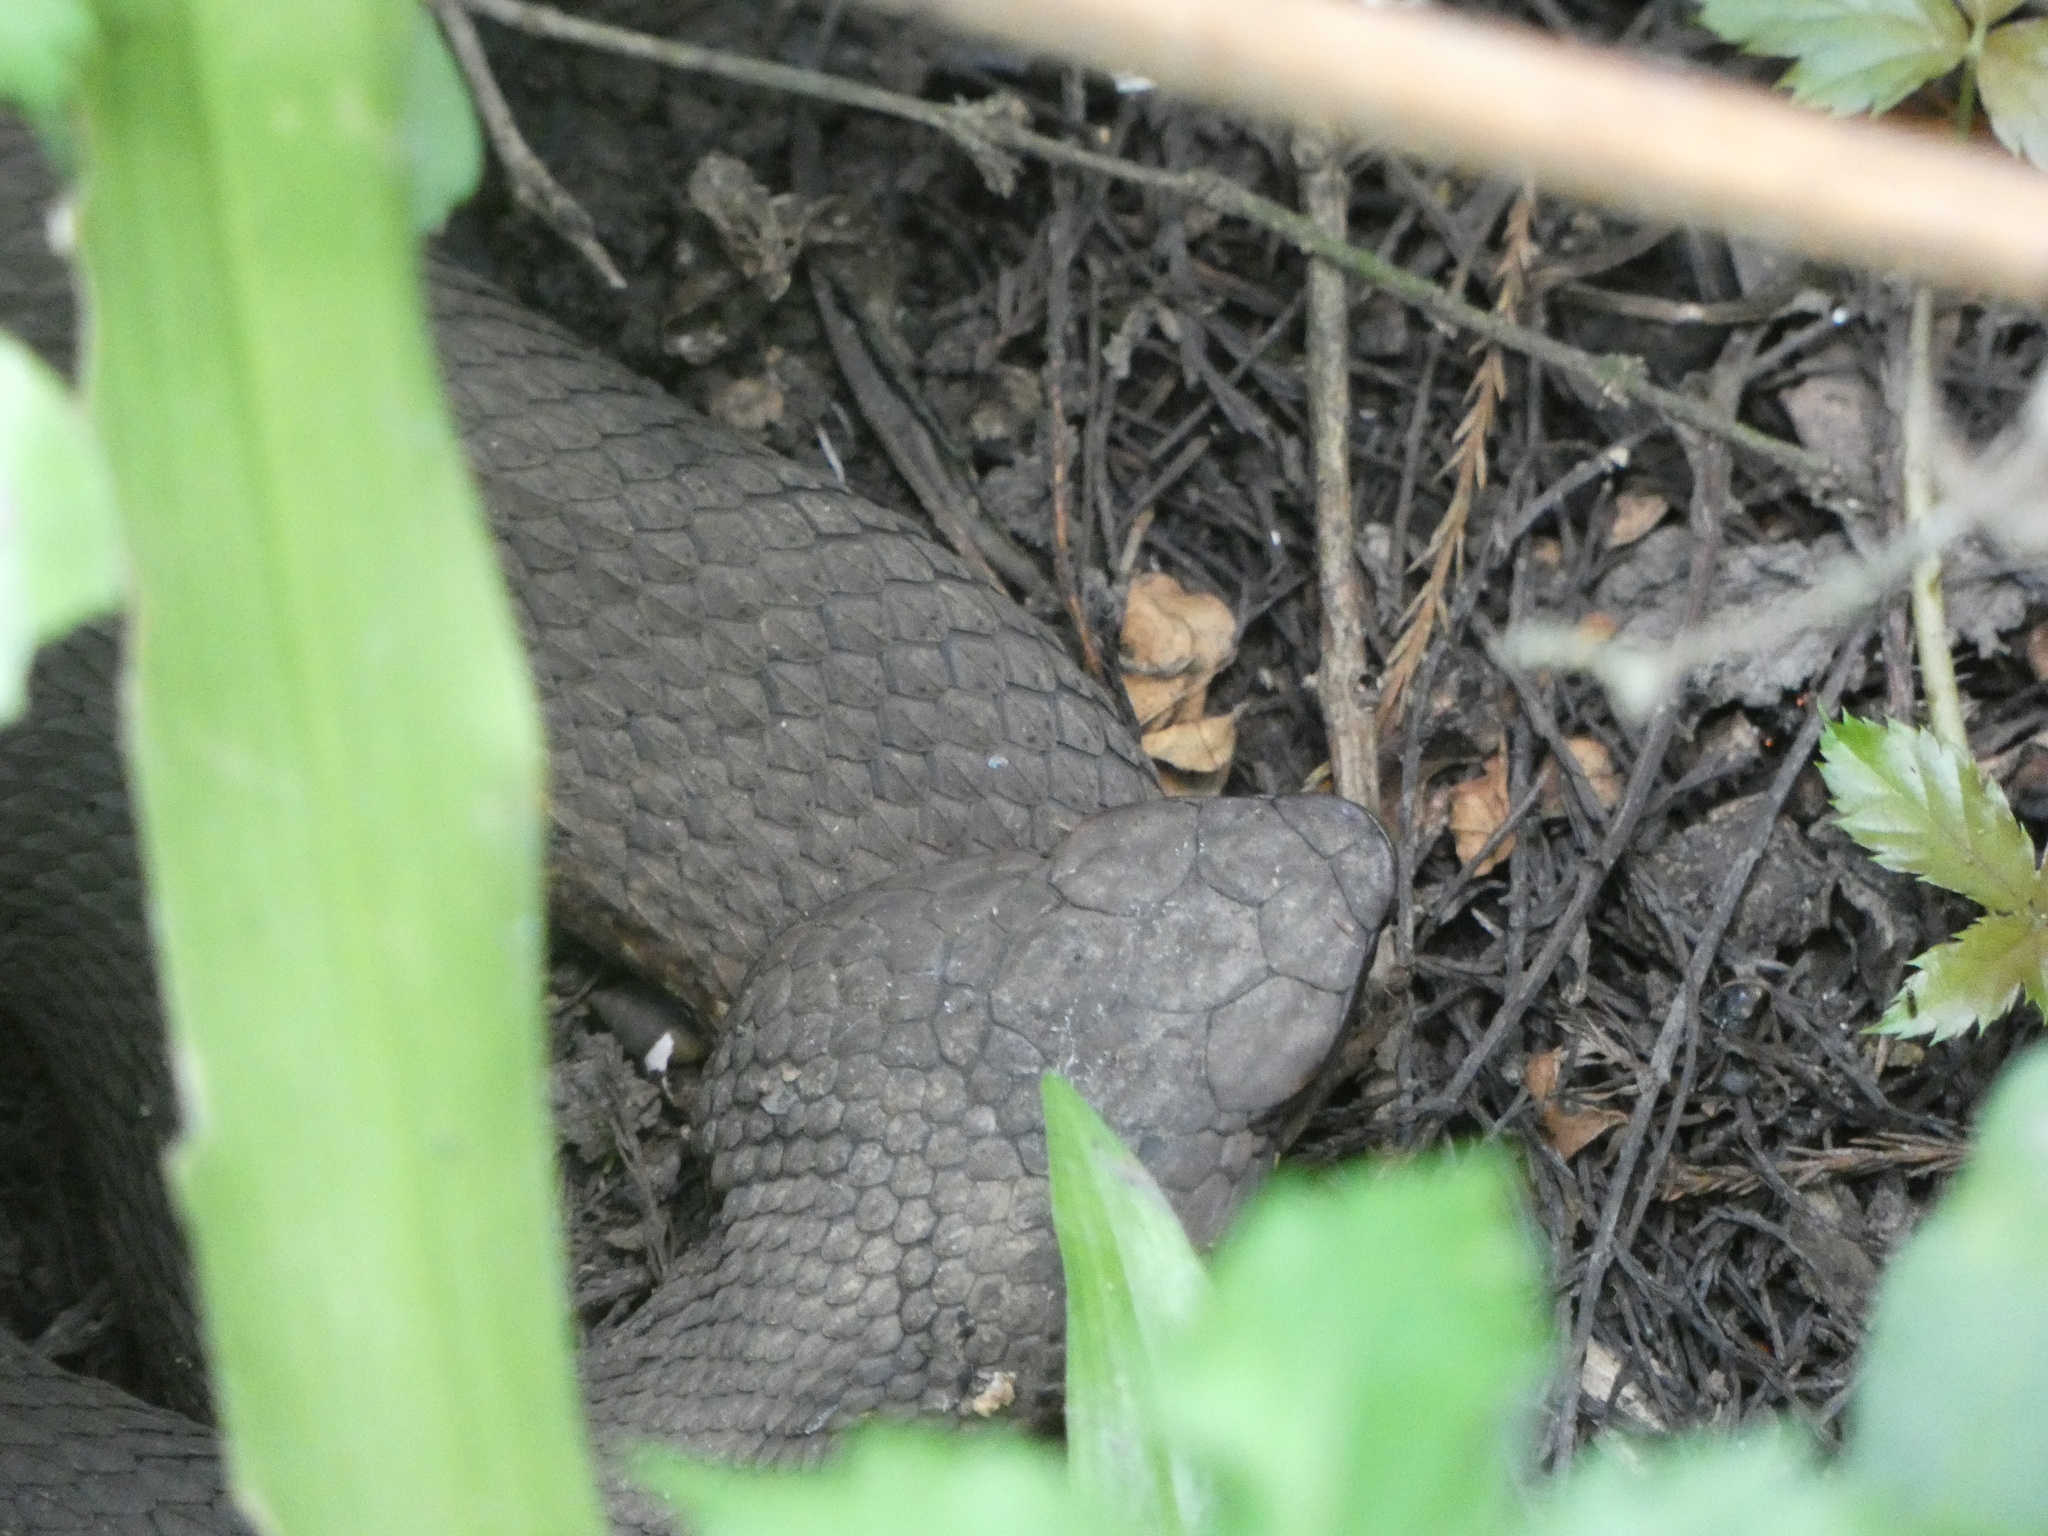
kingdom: Animalia
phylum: Chordata
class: Squamata
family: Viperidae
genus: Agkistrodon
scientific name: Agkistrodon piscivorus
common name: Cottonmouth
